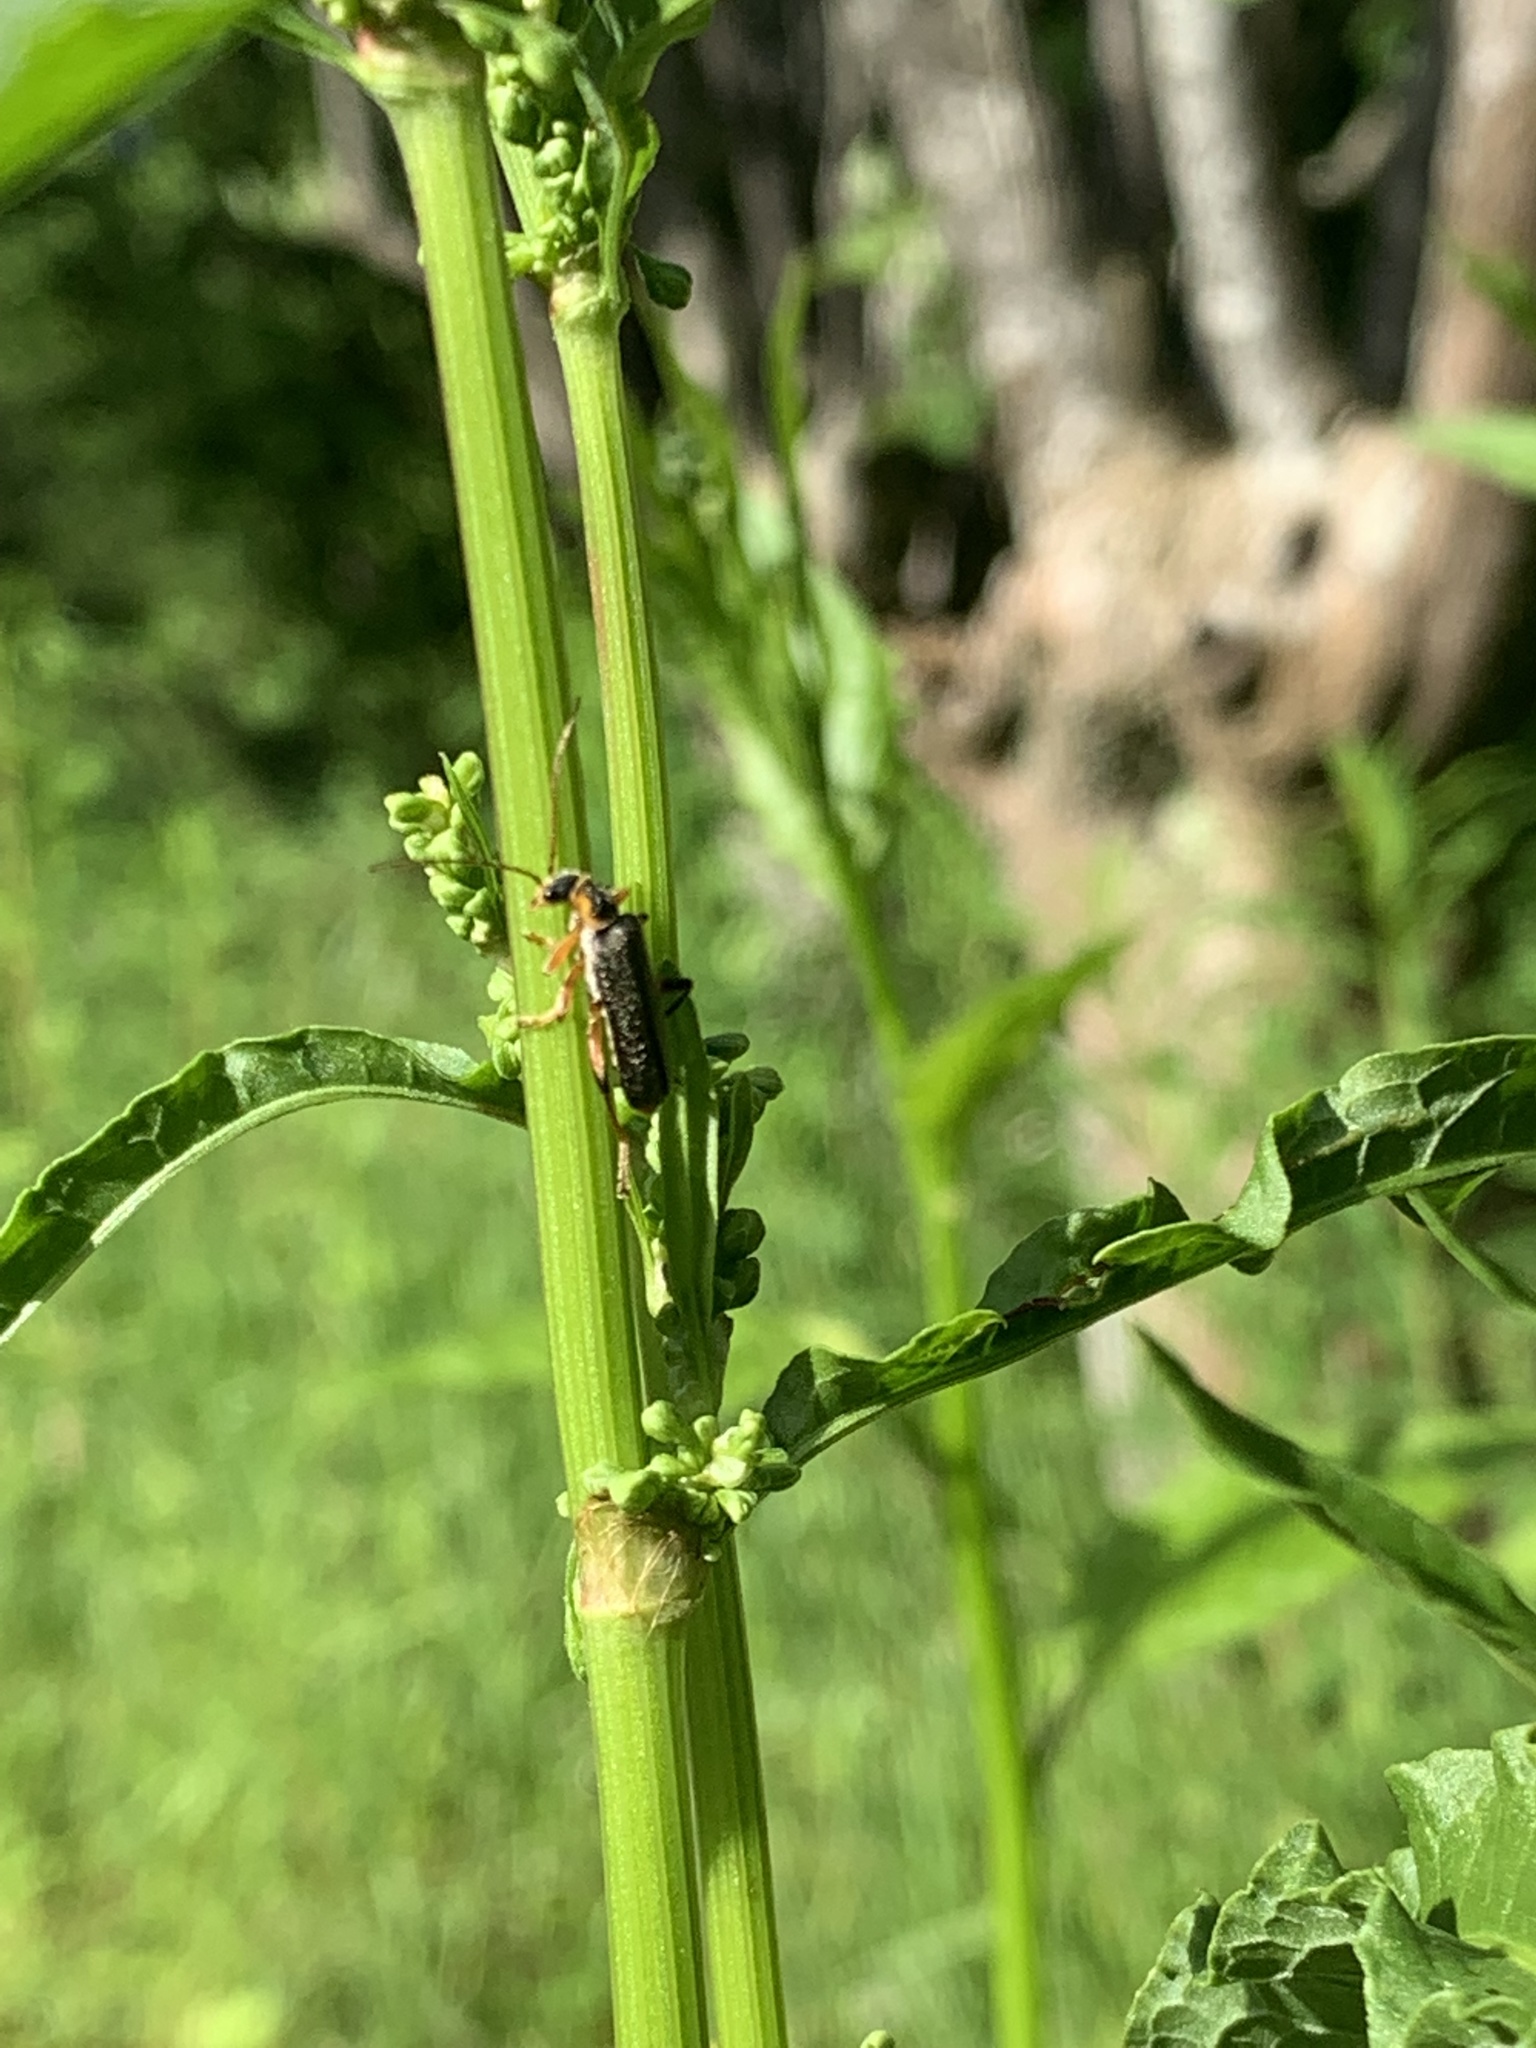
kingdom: Animalia
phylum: Arthropoda
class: Insecta
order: Coleoptera
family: Cantharidae
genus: Cantharis
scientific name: Cantharis nigricans
